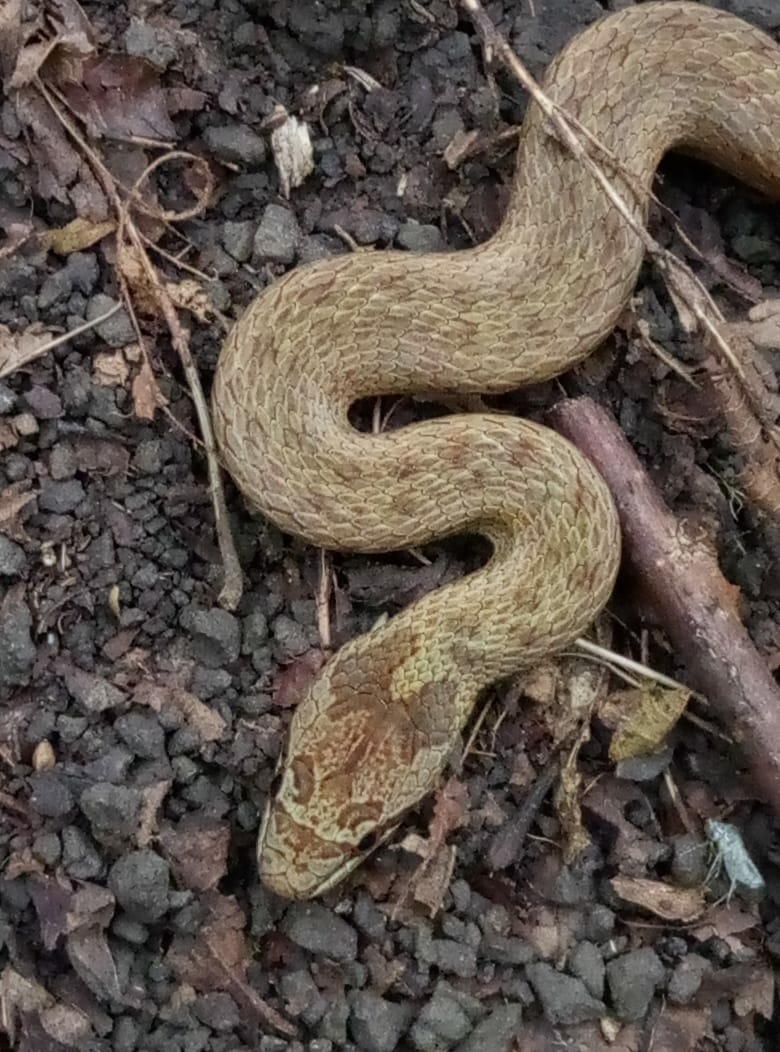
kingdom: Animalia
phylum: Chordata
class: Squamata
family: Colubridae
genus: Coronella
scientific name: Coronella austriaca
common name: Smooth snake
